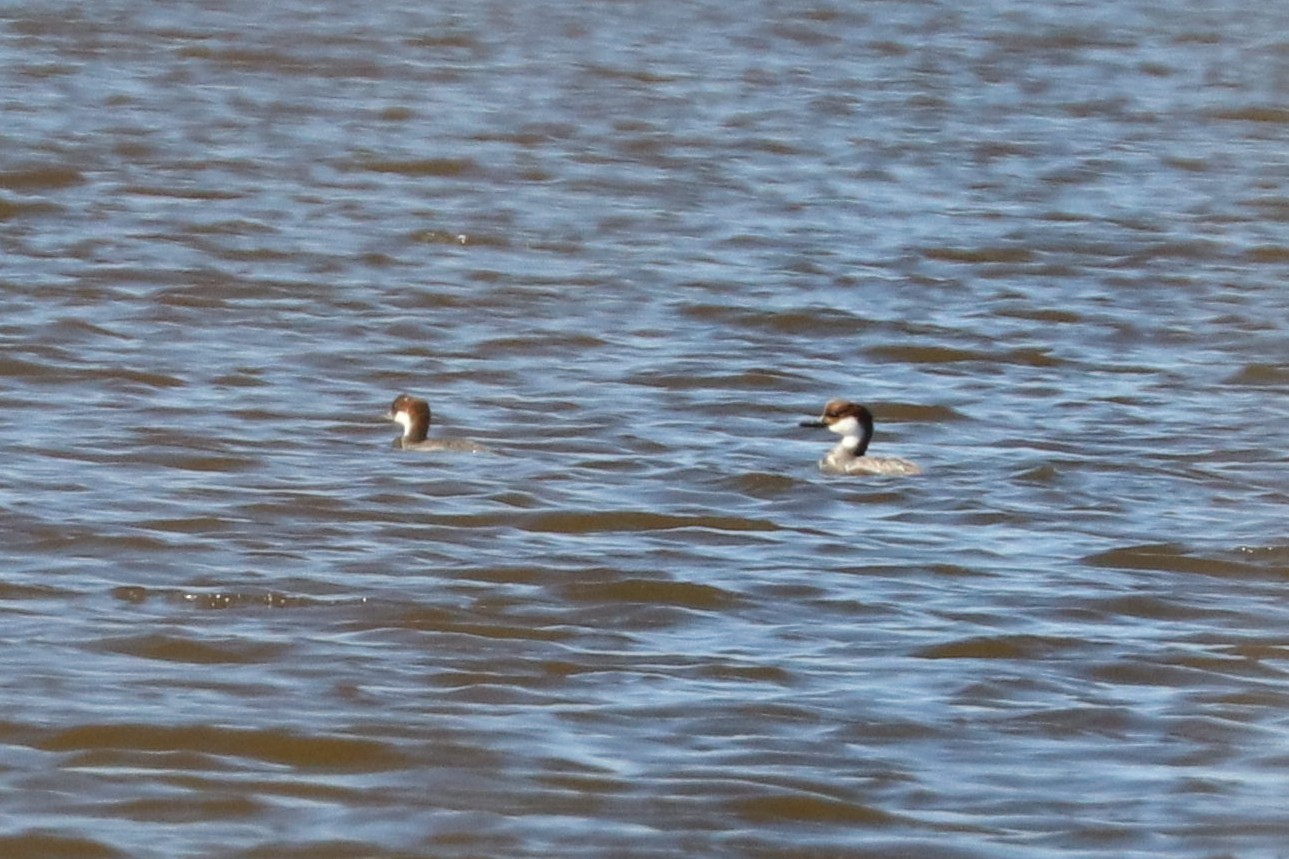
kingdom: Animalia
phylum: Chordata
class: Aves
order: Anseriformes
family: Anatidae
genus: Mergellus
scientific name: Mergellus albellus
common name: Smew
